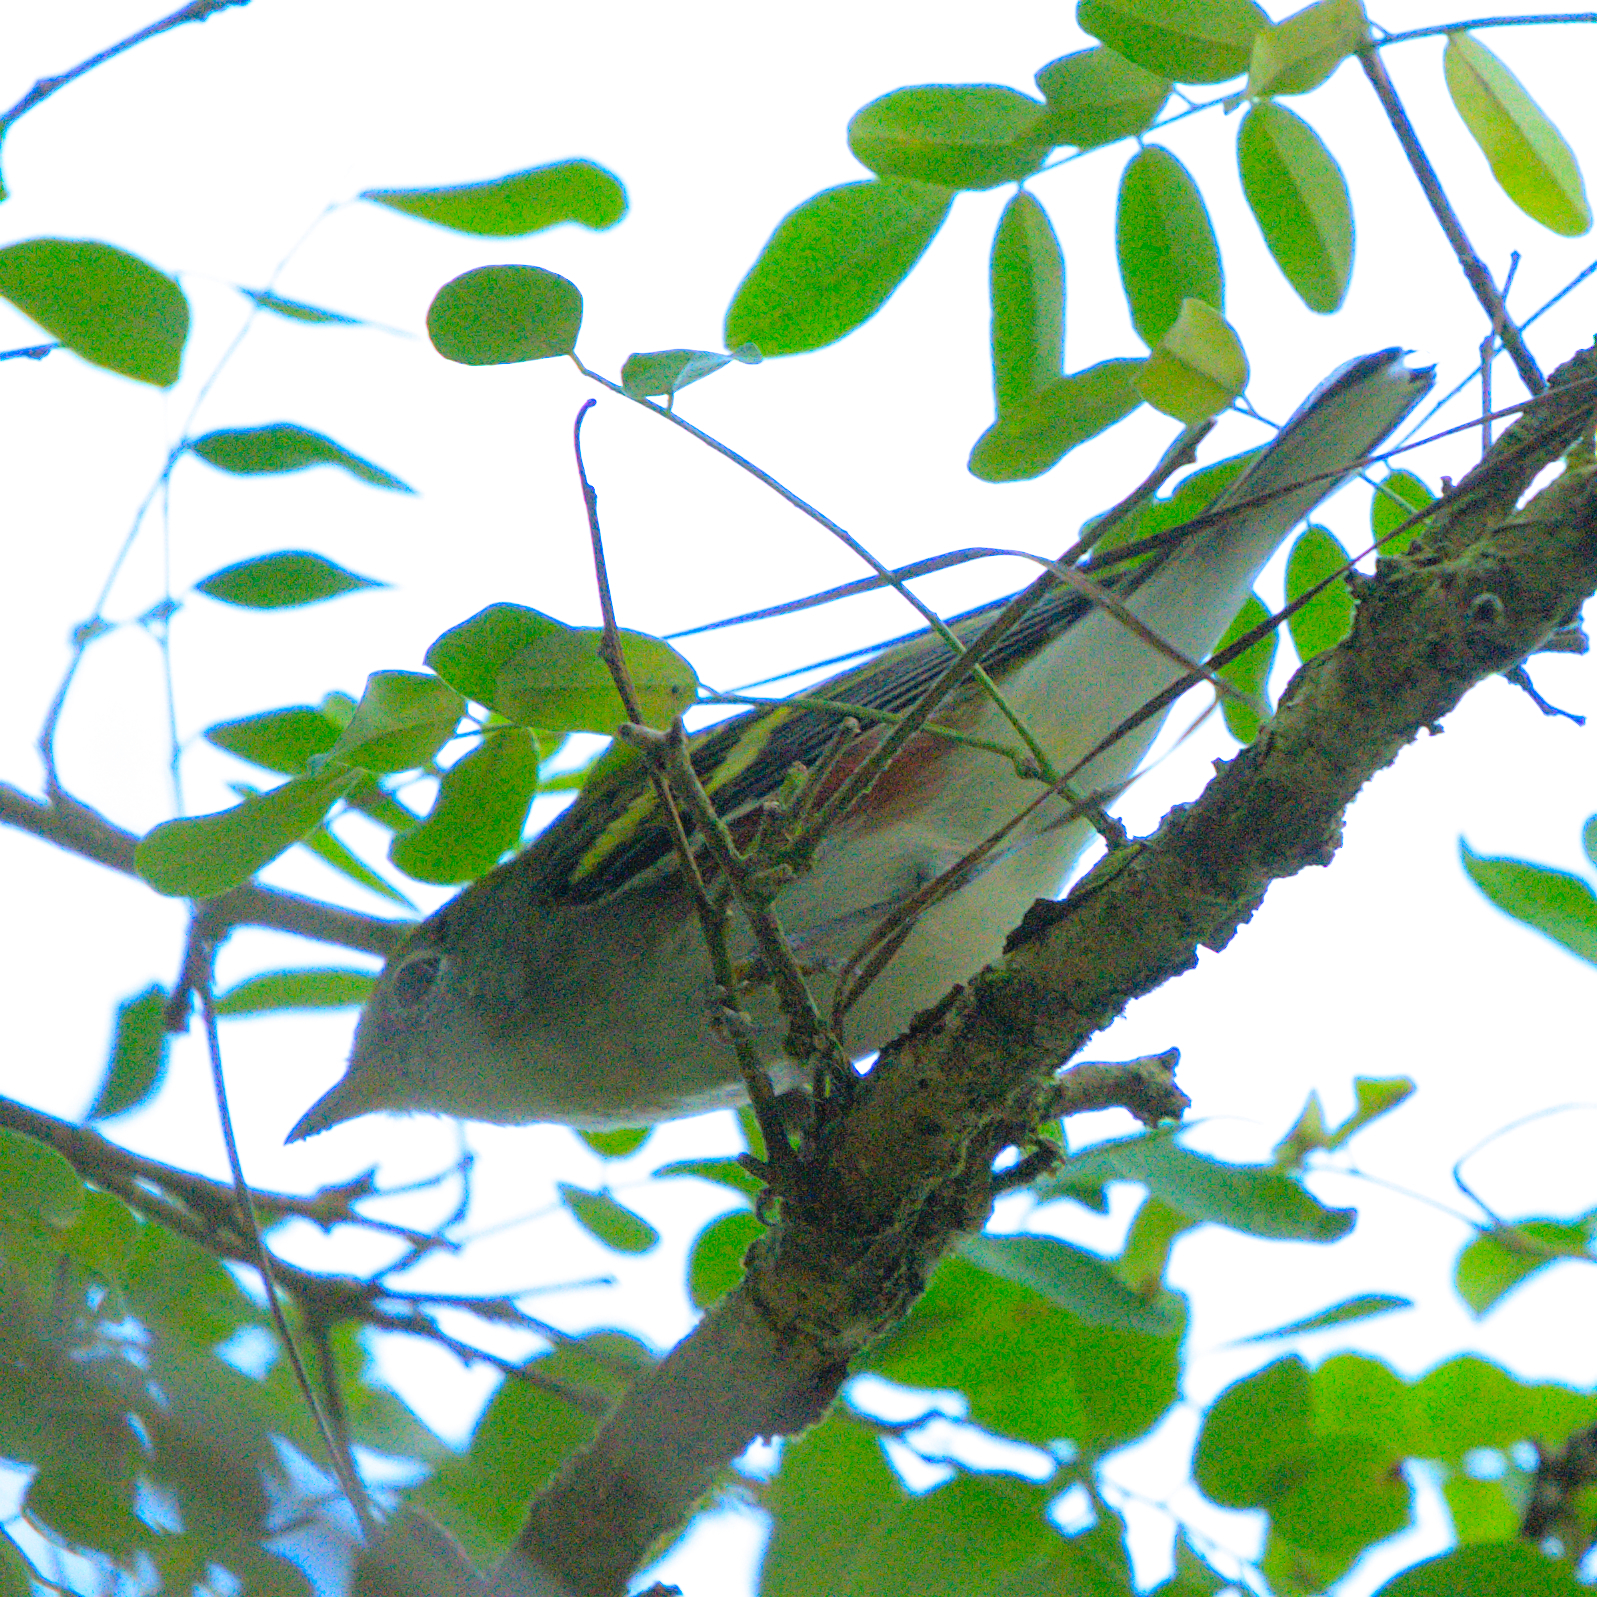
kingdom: Animalia
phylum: Chordata
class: Aves
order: Passeriformes
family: Parulidae
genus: Setophaga
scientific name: Setophaga pensylvanica
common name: Chestnut-sided warbler
